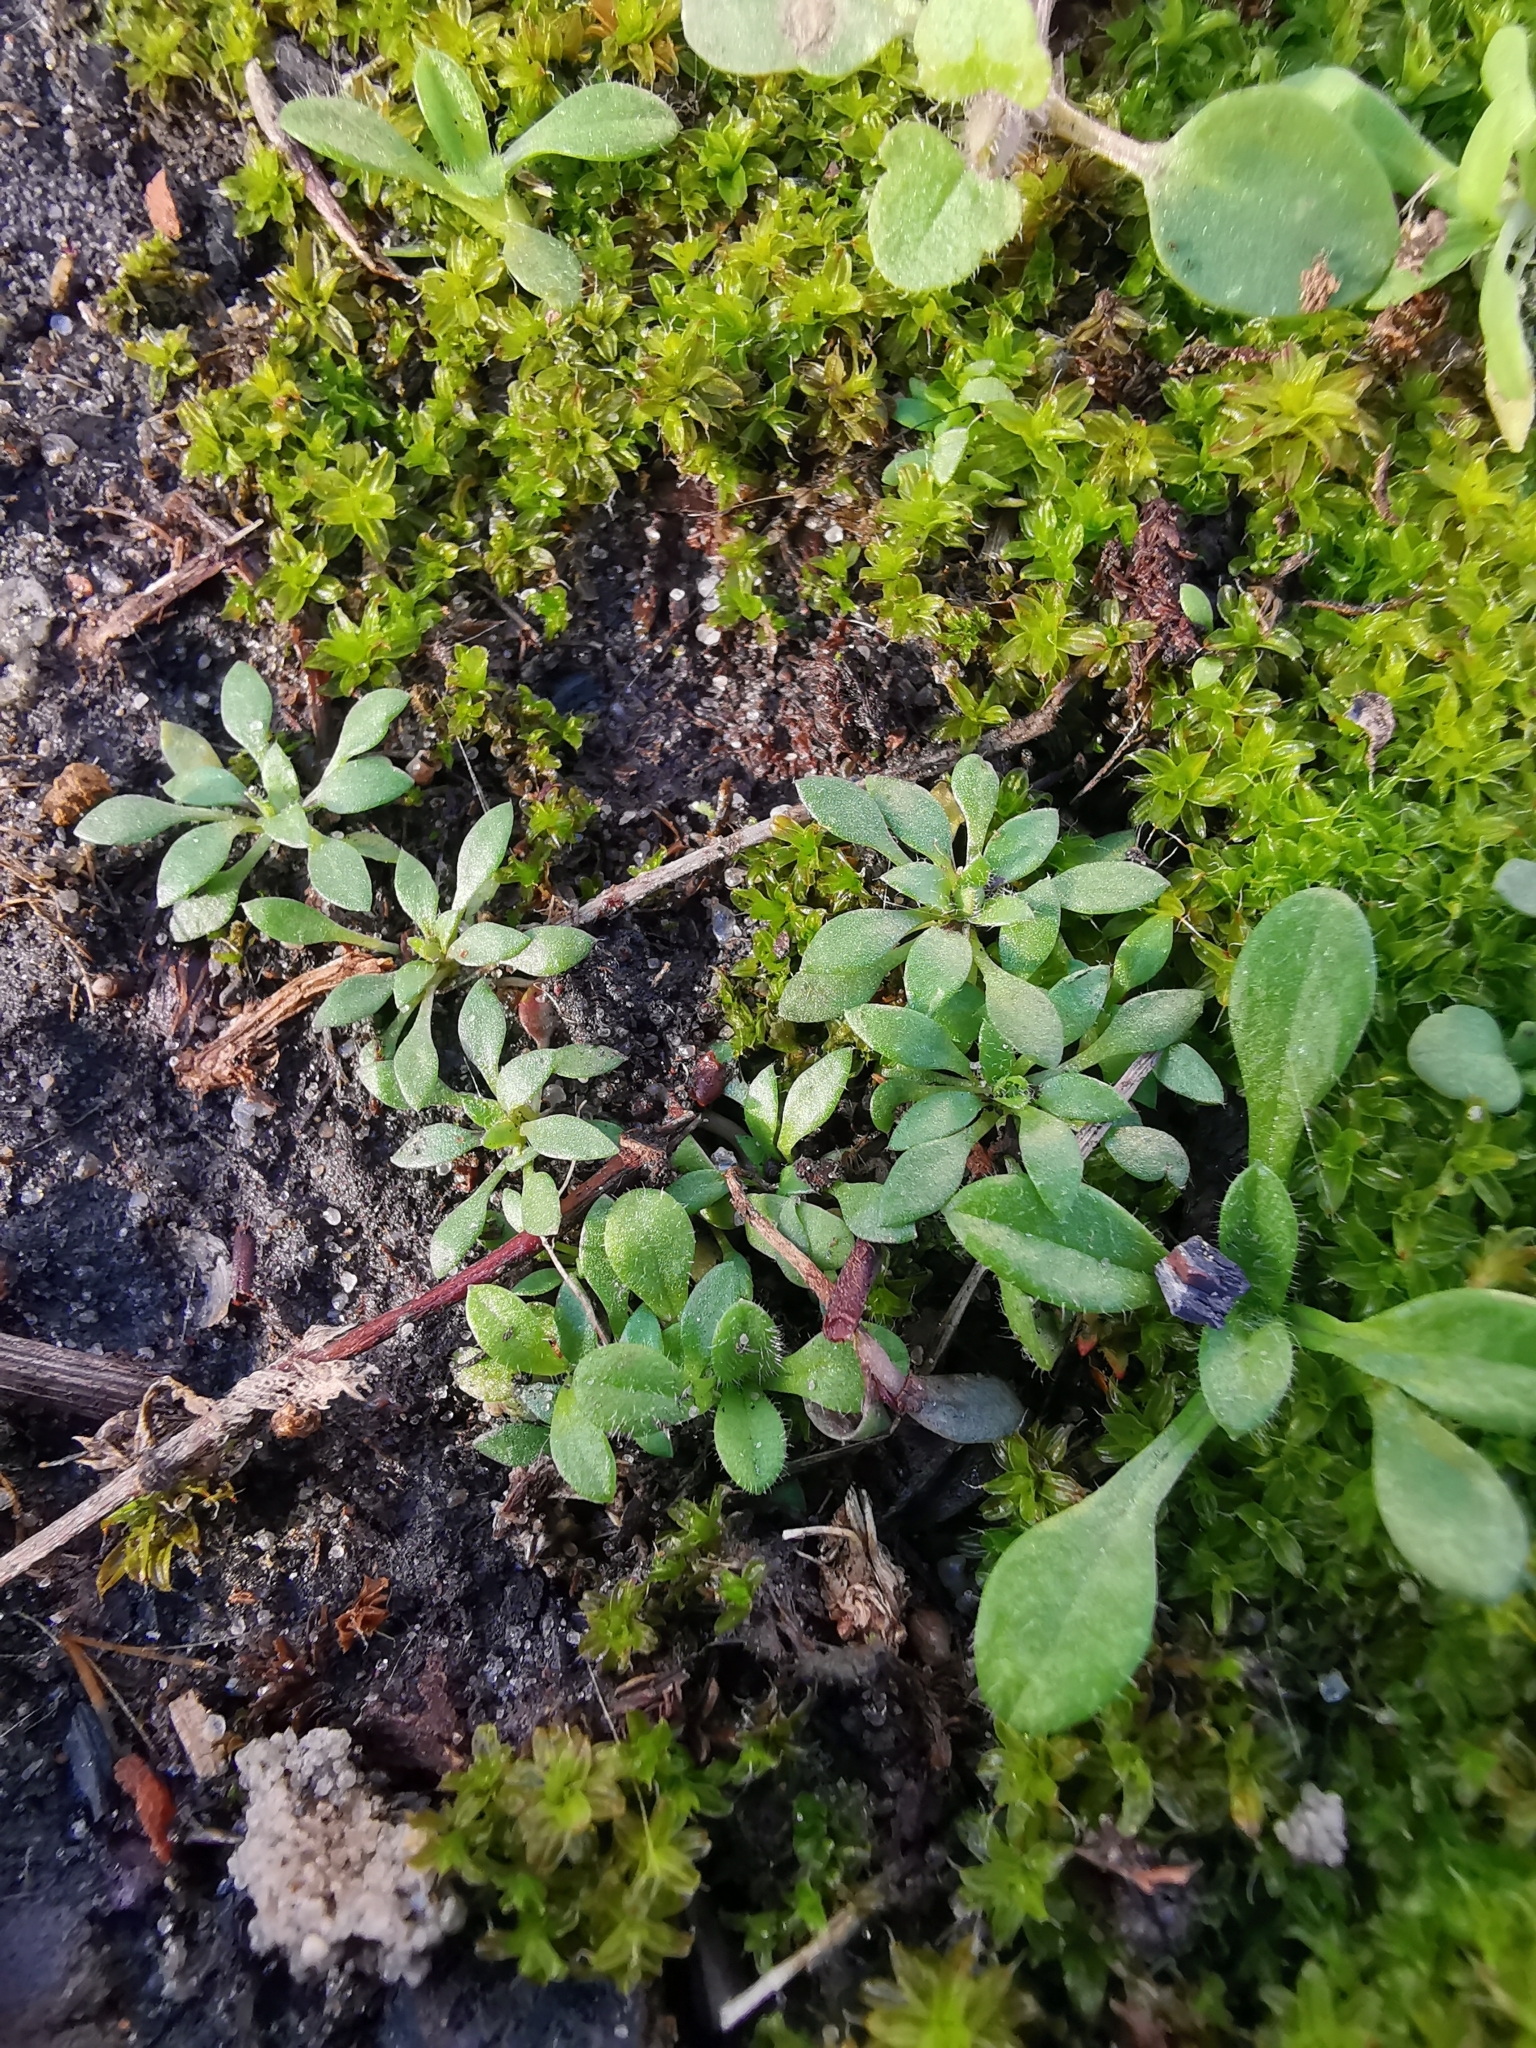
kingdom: Plantae
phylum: Tracheophyta
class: Magnoliopsida
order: Brassicales
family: Brassicaceae
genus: Draba
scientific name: Draba verna
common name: Spring draba
